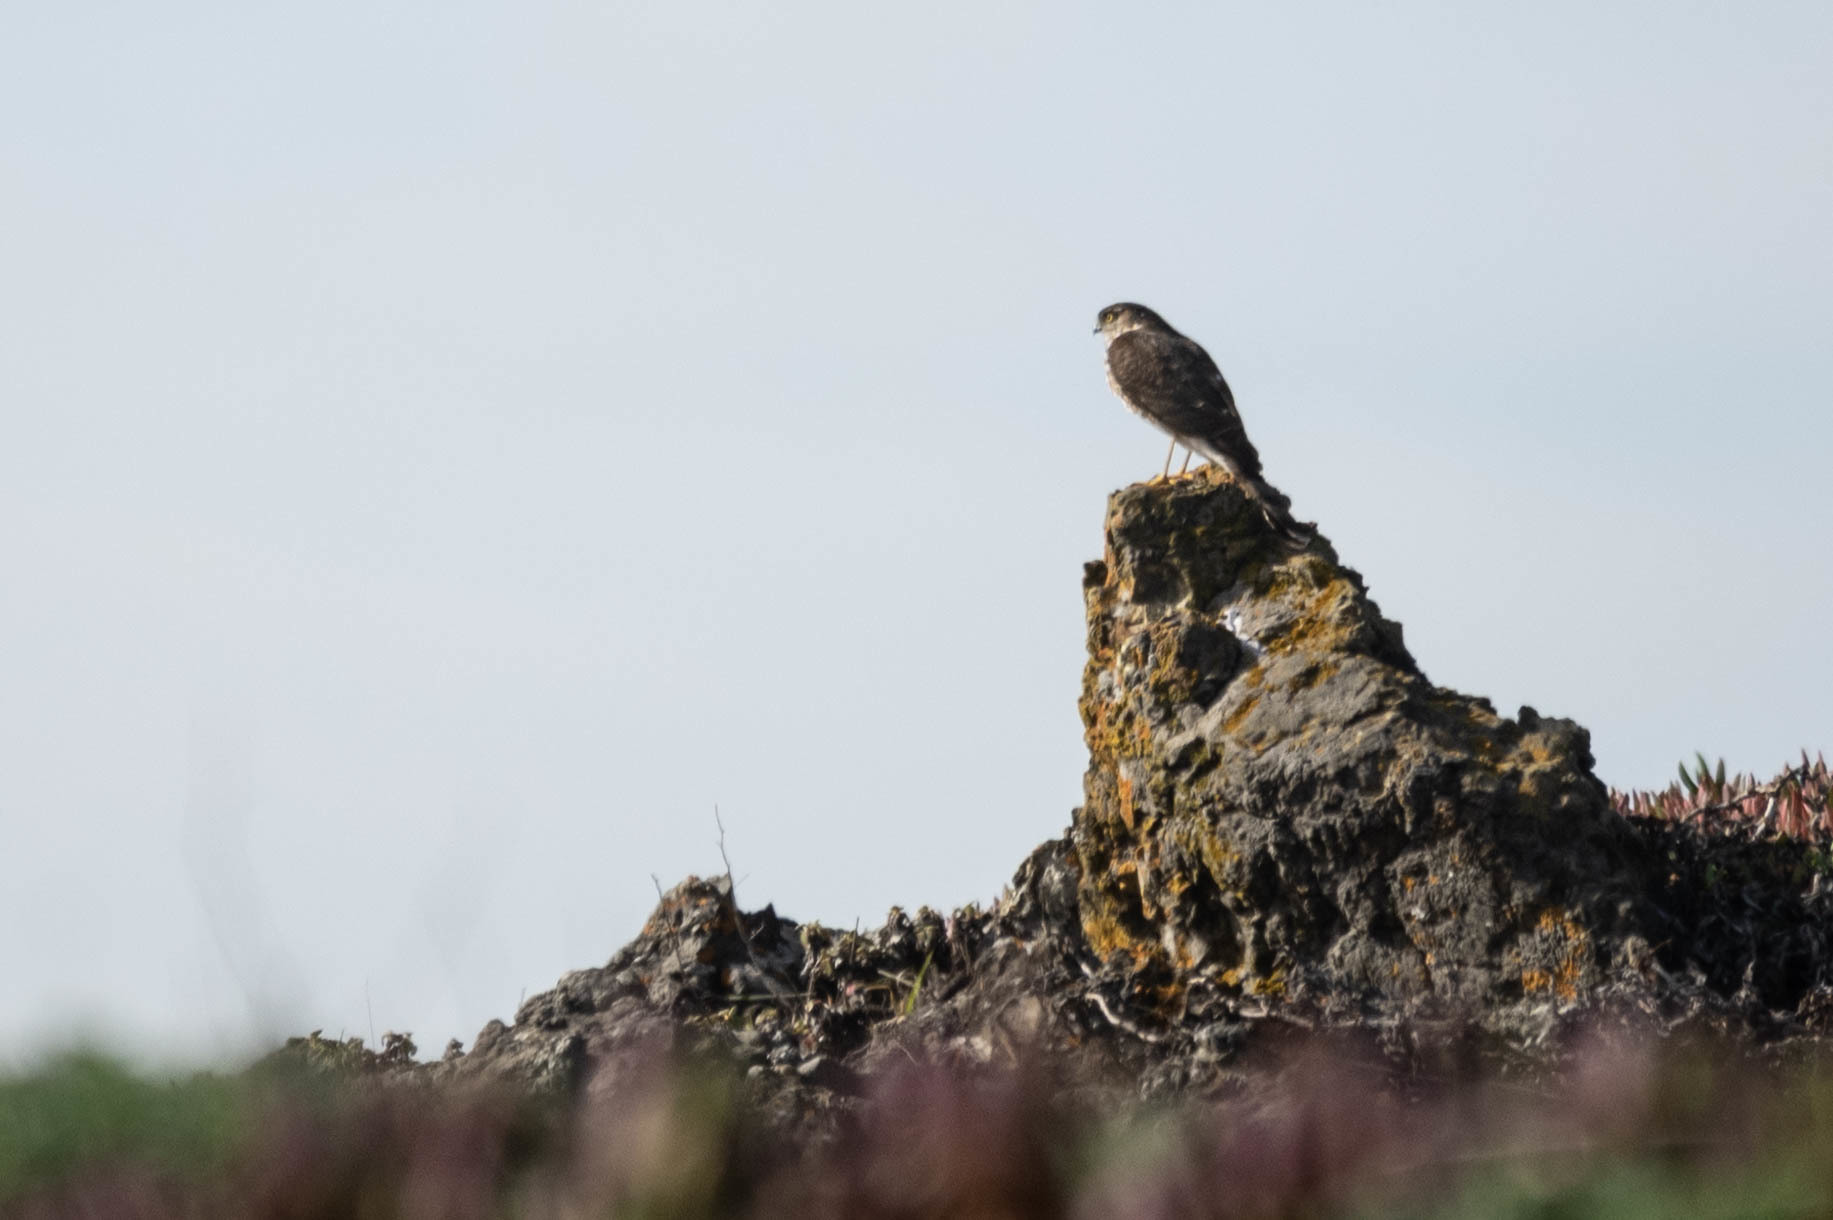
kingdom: Animalia
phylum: Chordata
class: Aves
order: Accipitriformes
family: Accipitridae
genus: Accipiter
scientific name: Accipiter striatus
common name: Sharp-shinned hawk
